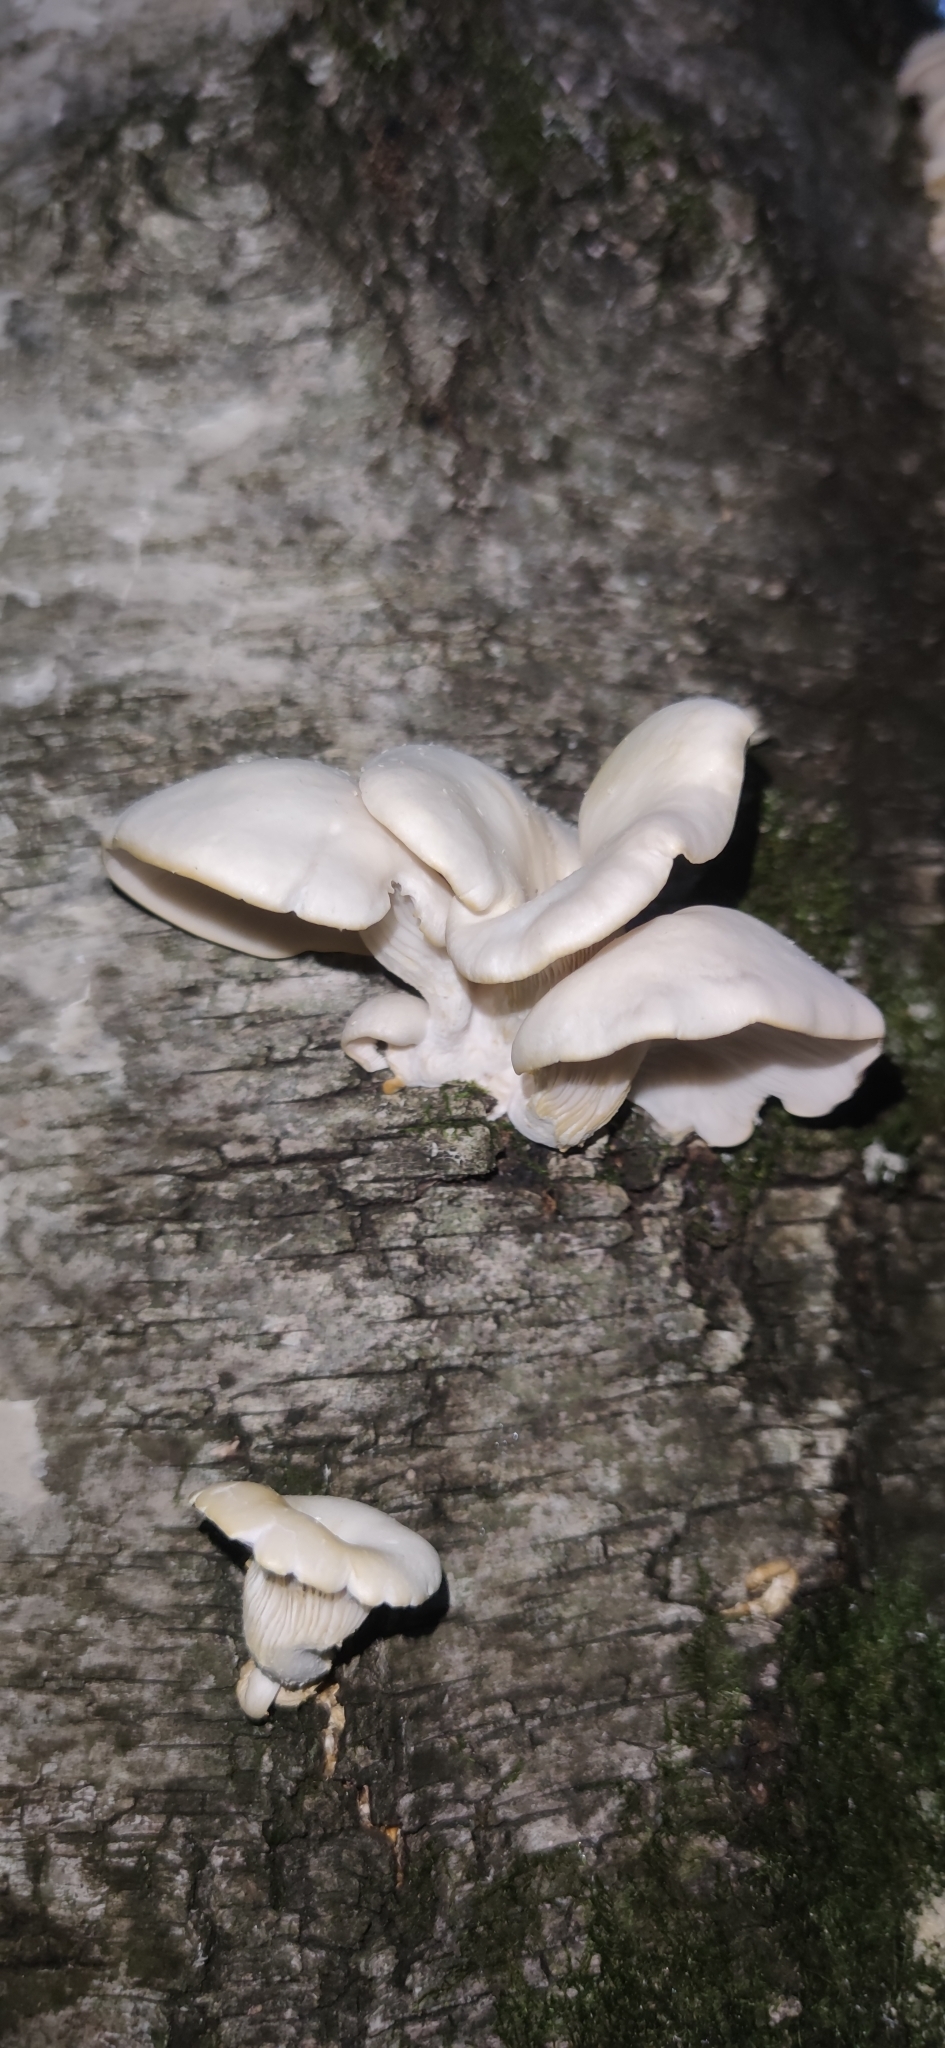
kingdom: Fungi
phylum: Basidiomycota
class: Agaricomycetes
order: Agaricales
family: Pleurotaceae
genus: Pleurotus
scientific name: Pleurotus pulmonarius
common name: Pale oyster
